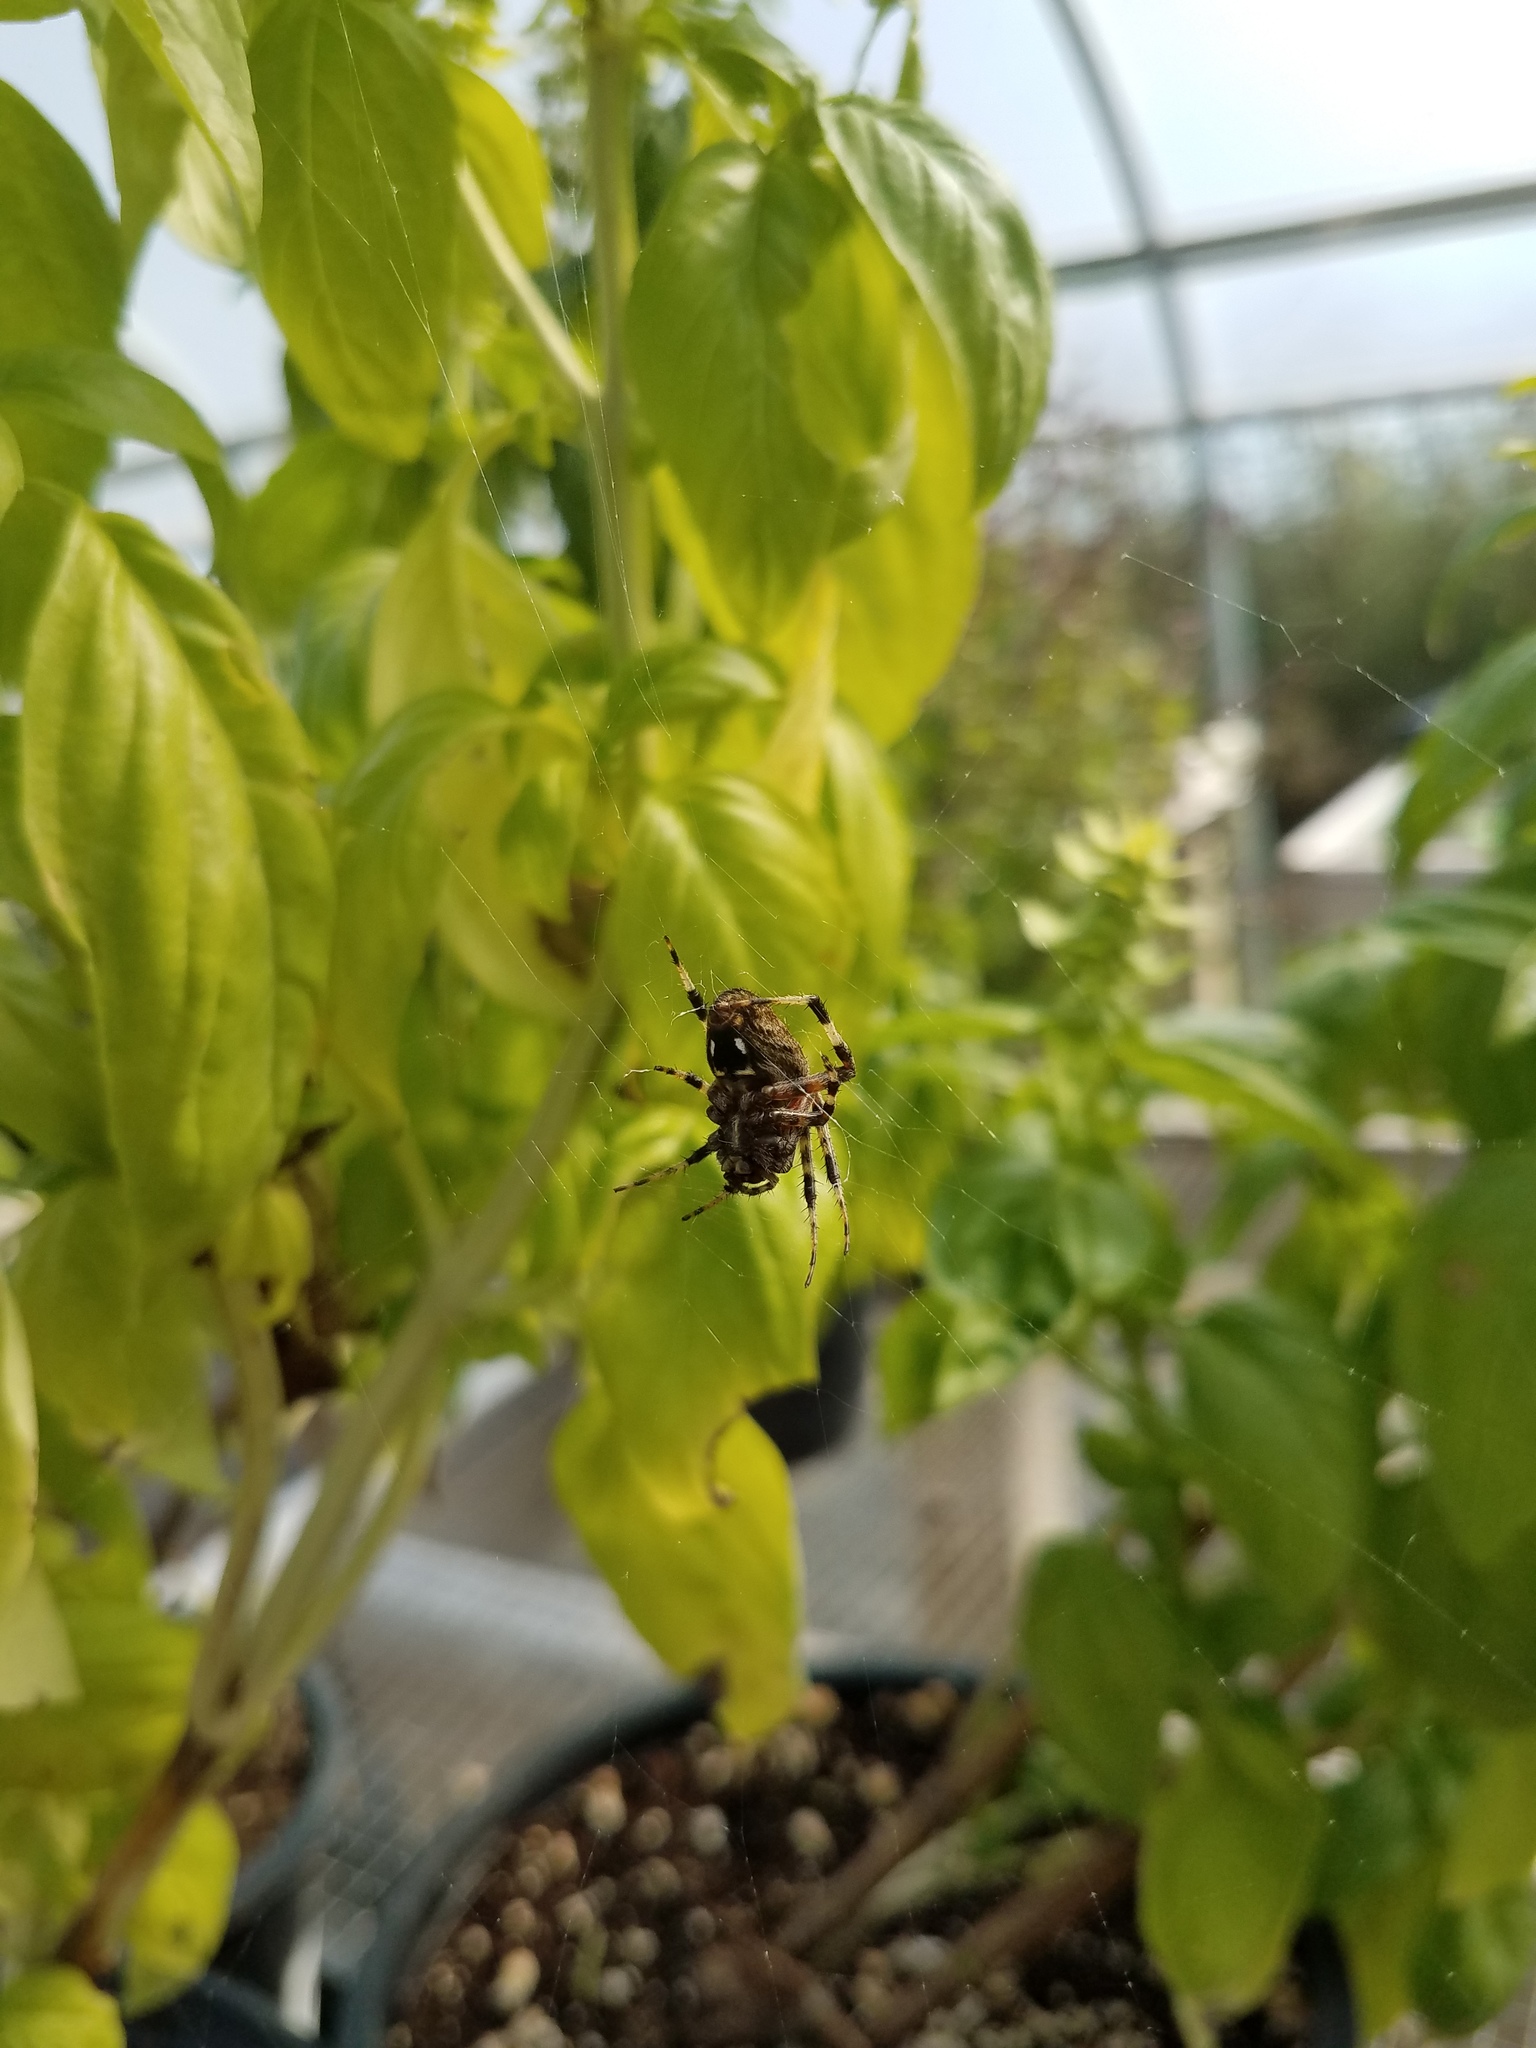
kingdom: Animalia
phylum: Arthropoda
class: Arachnida
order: Araneae
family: Araneidae
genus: Neoscona
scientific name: Neoscona crucifera
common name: Spotted orbweaver
